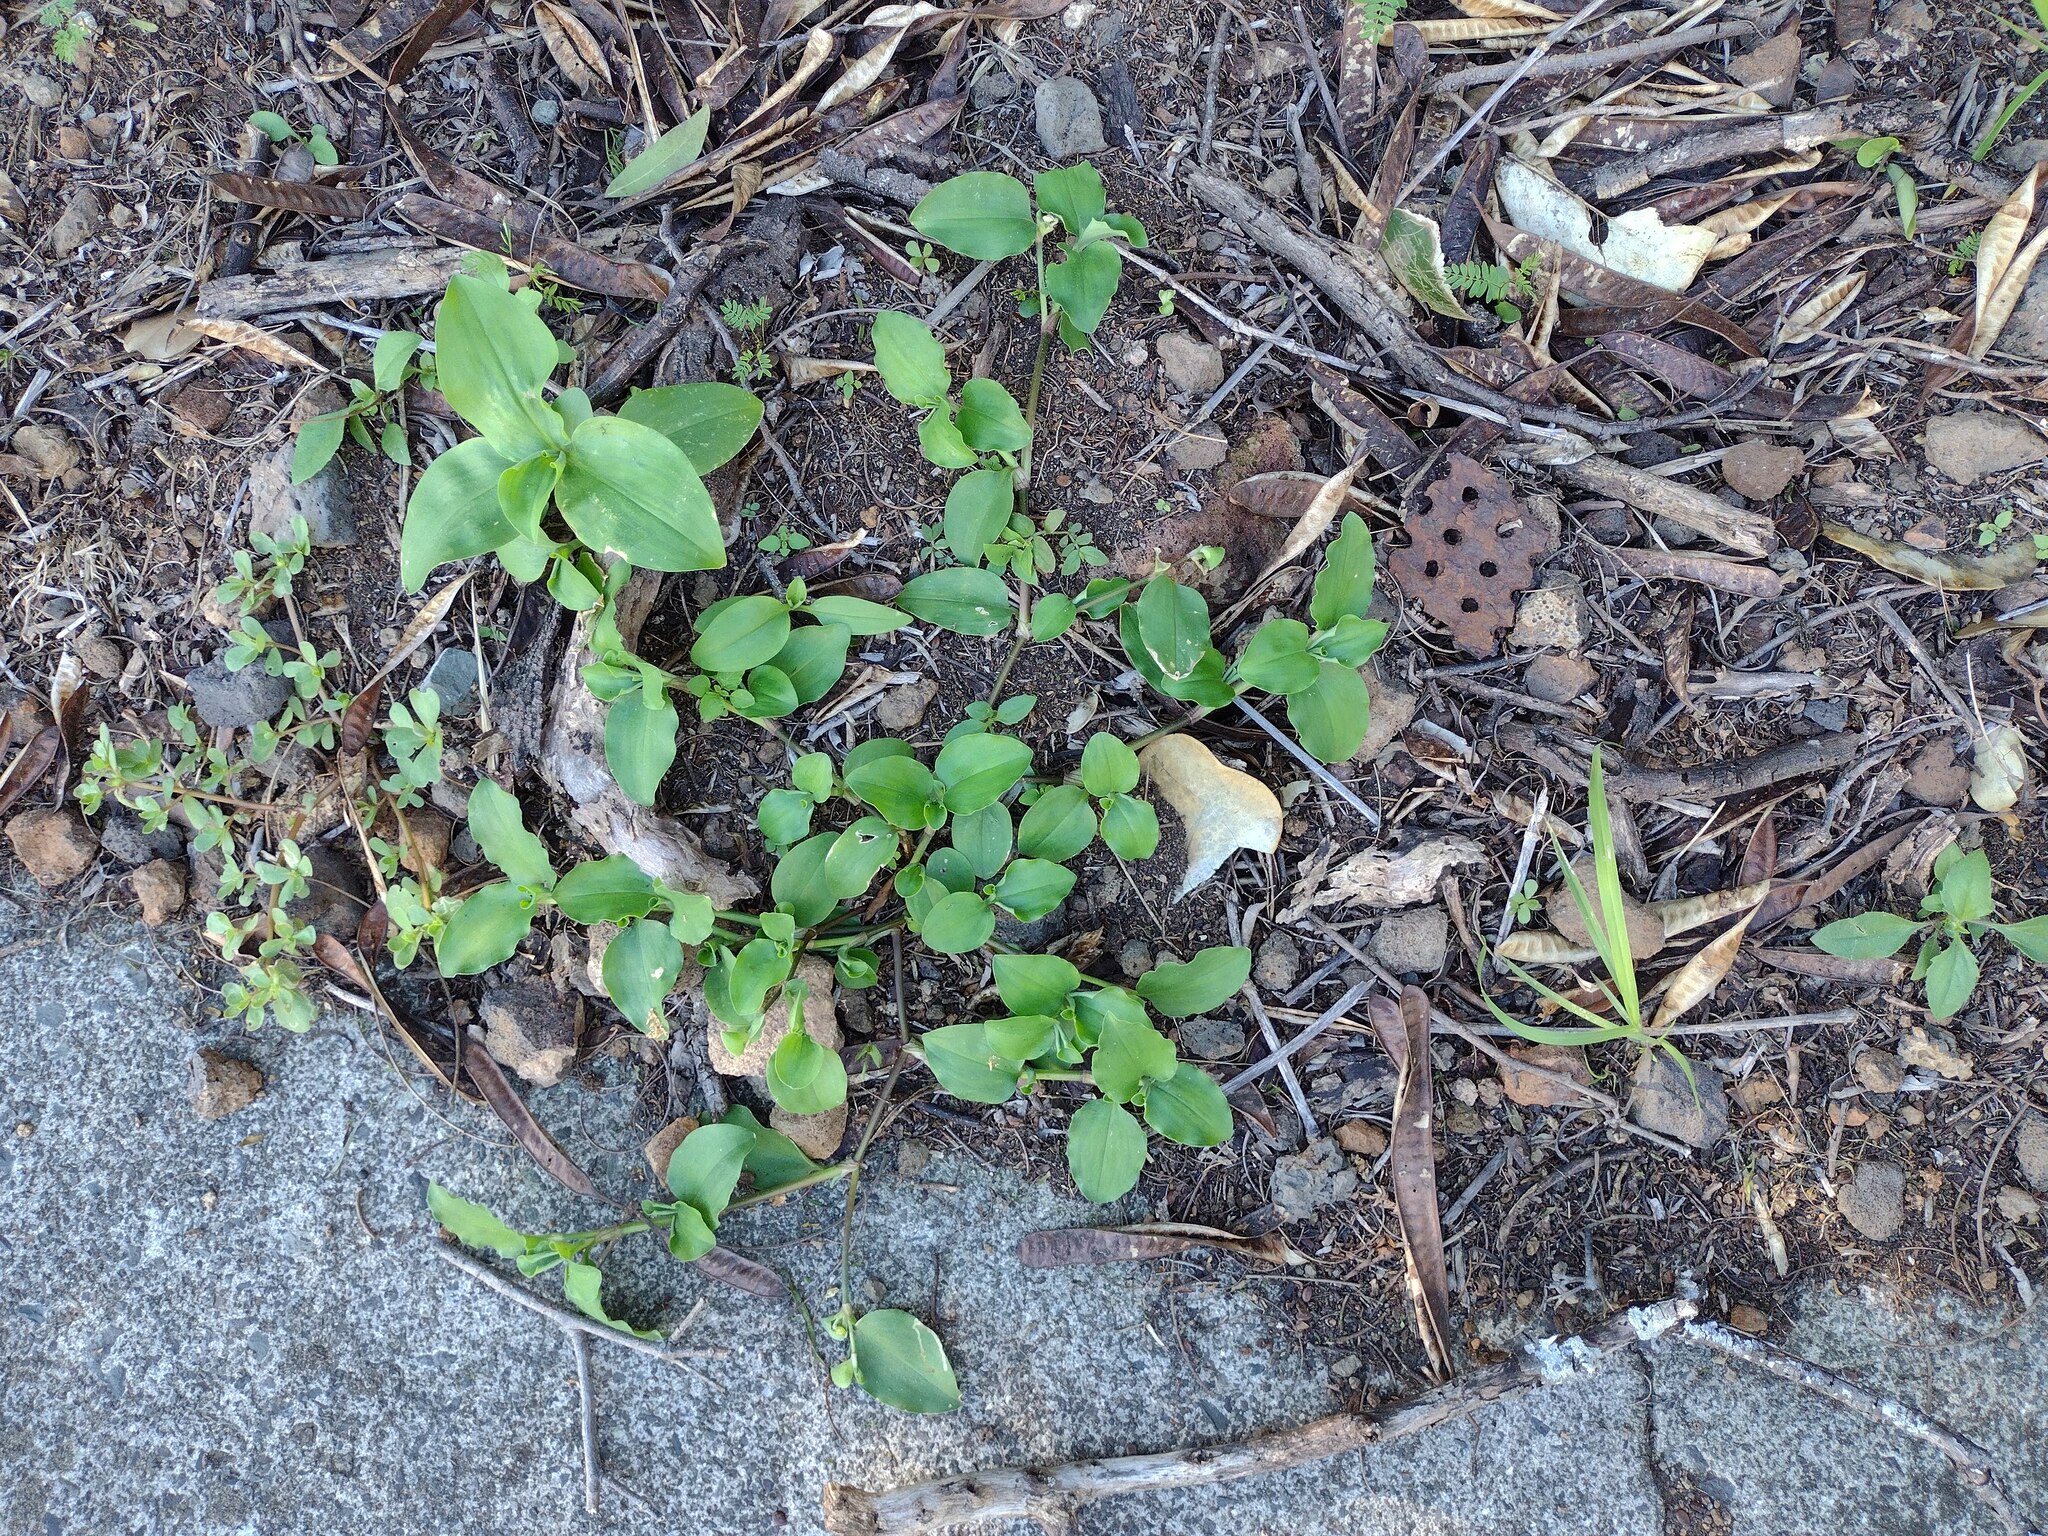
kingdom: Plantae
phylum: Tracheophyta
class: Liliopsida
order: Commelinales
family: Commelinaceae
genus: Commelina
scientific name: Commelina benghalensis
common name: Jio
